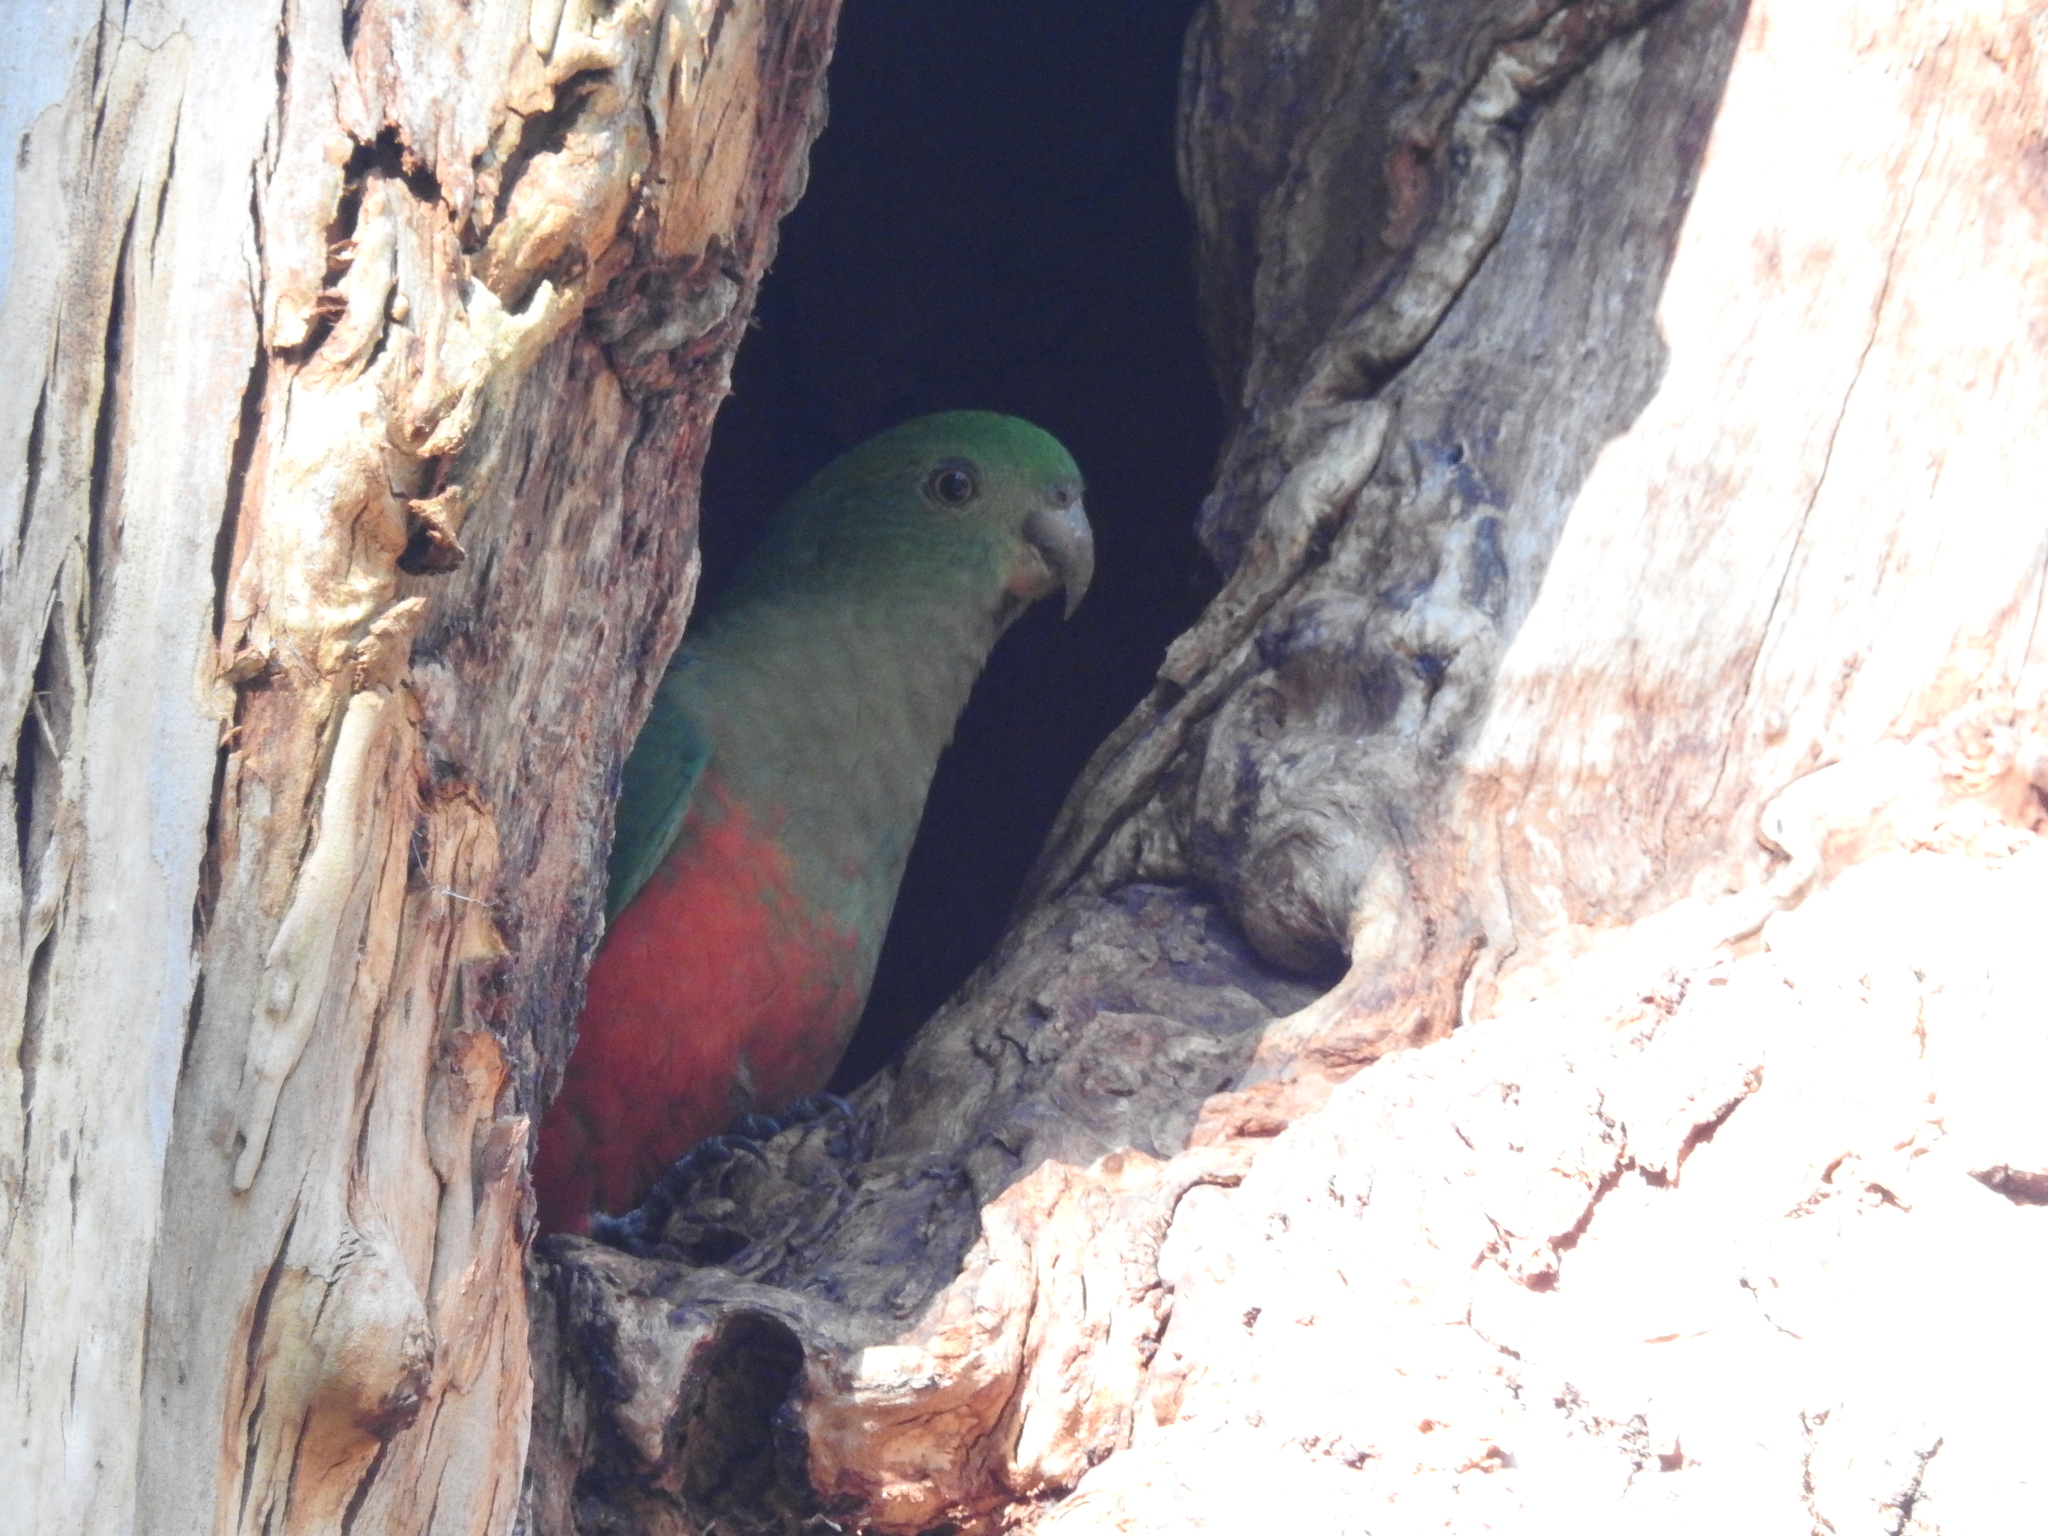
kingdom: Animalia
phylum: Chordata
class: Aves
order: Psittaciformes
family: Psittacidae
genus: Alisterus
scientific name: Alisterus scapularis
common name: Australian king parrot
